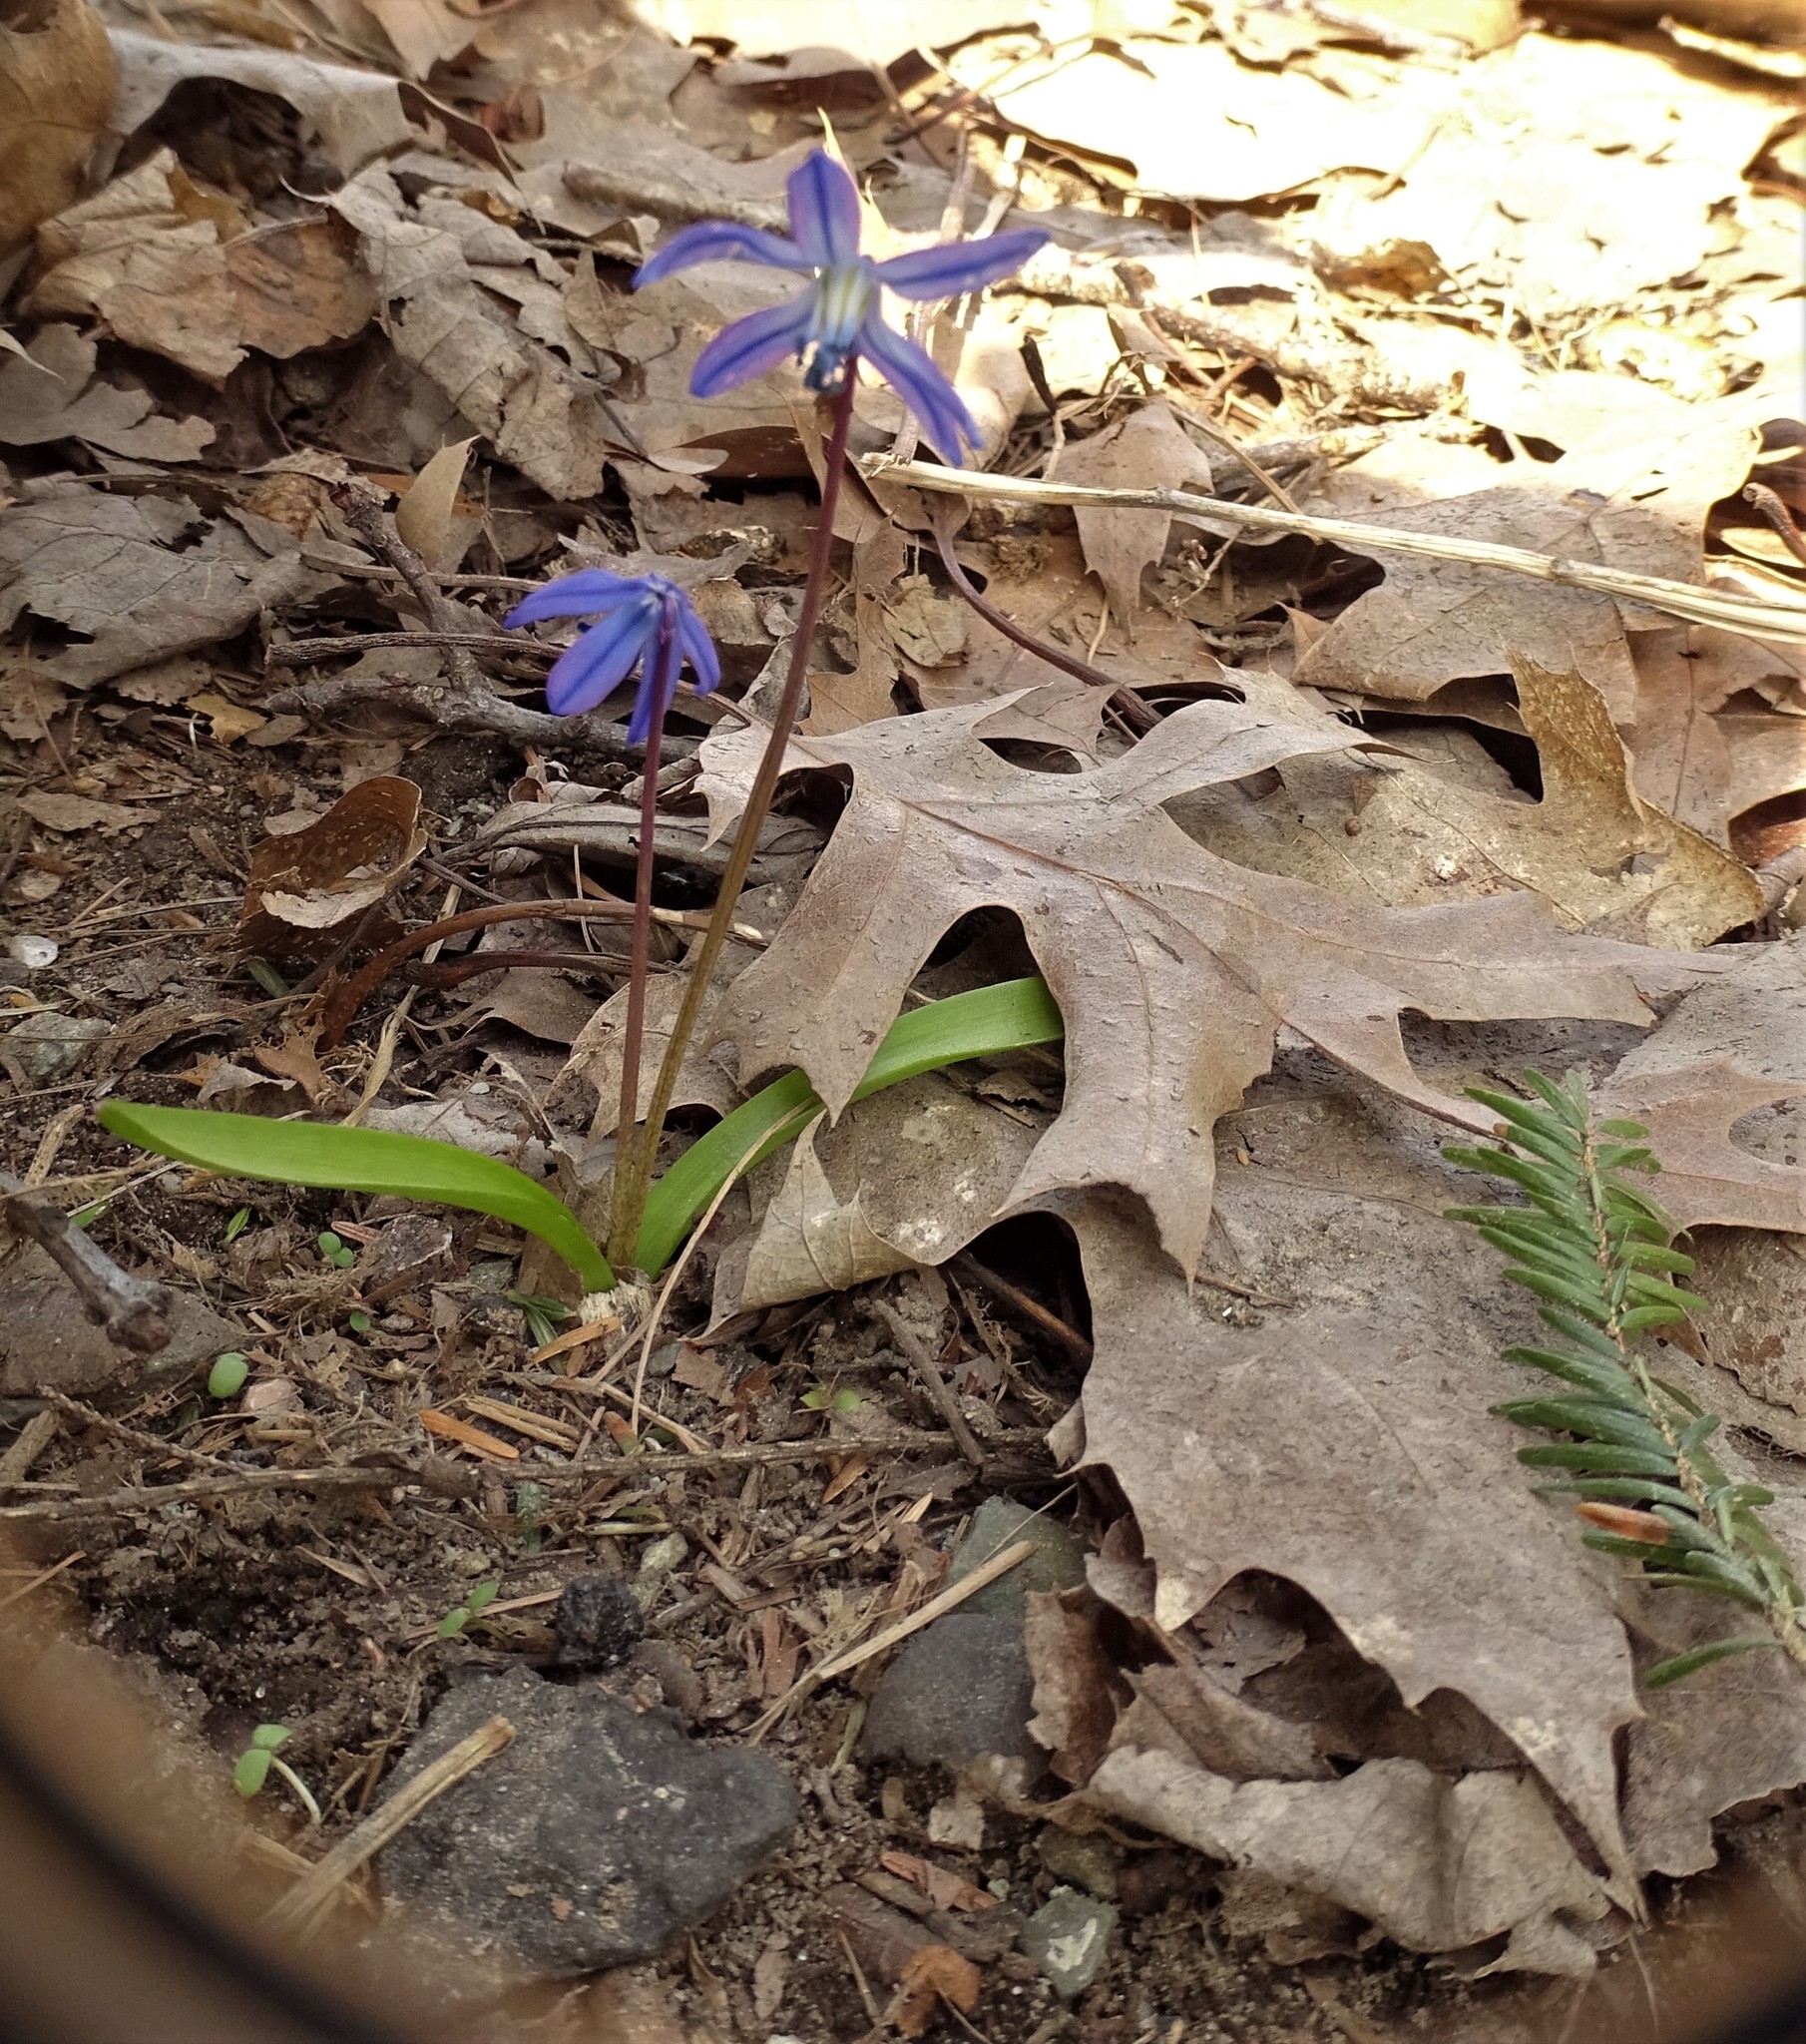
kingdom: Plantae
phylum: Tracheophyta
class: Liliopsida
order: Asparagales
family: Asparagaceae
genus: Scilla
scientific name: Scilla siberica
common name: Siberian squill
